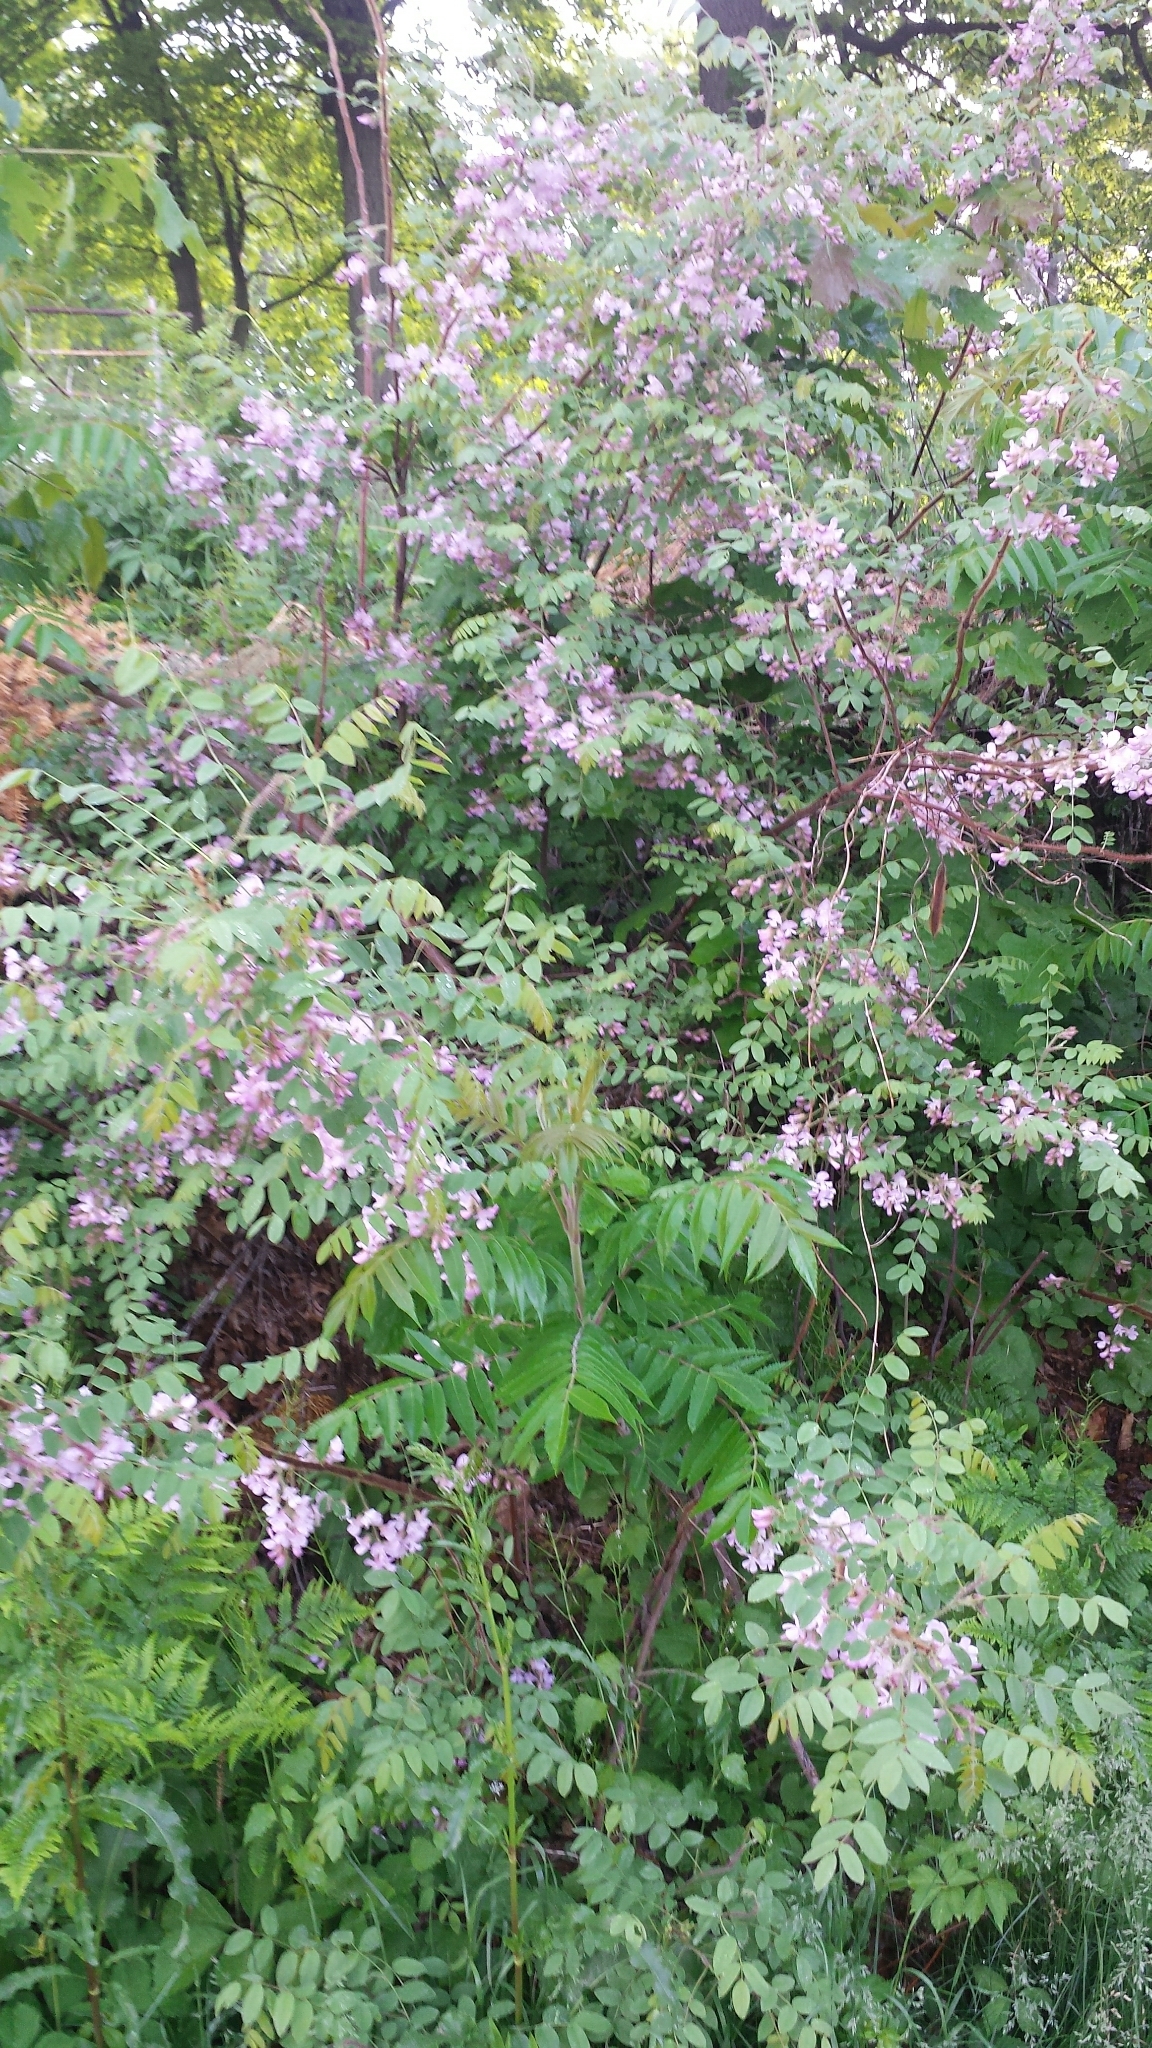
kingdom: Plantae
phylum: Tracheophyta
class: Magnoliopsida
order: Fabales
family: Fabaceae
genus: Robinia
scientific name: Robinia hispida
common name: Bristly locust
